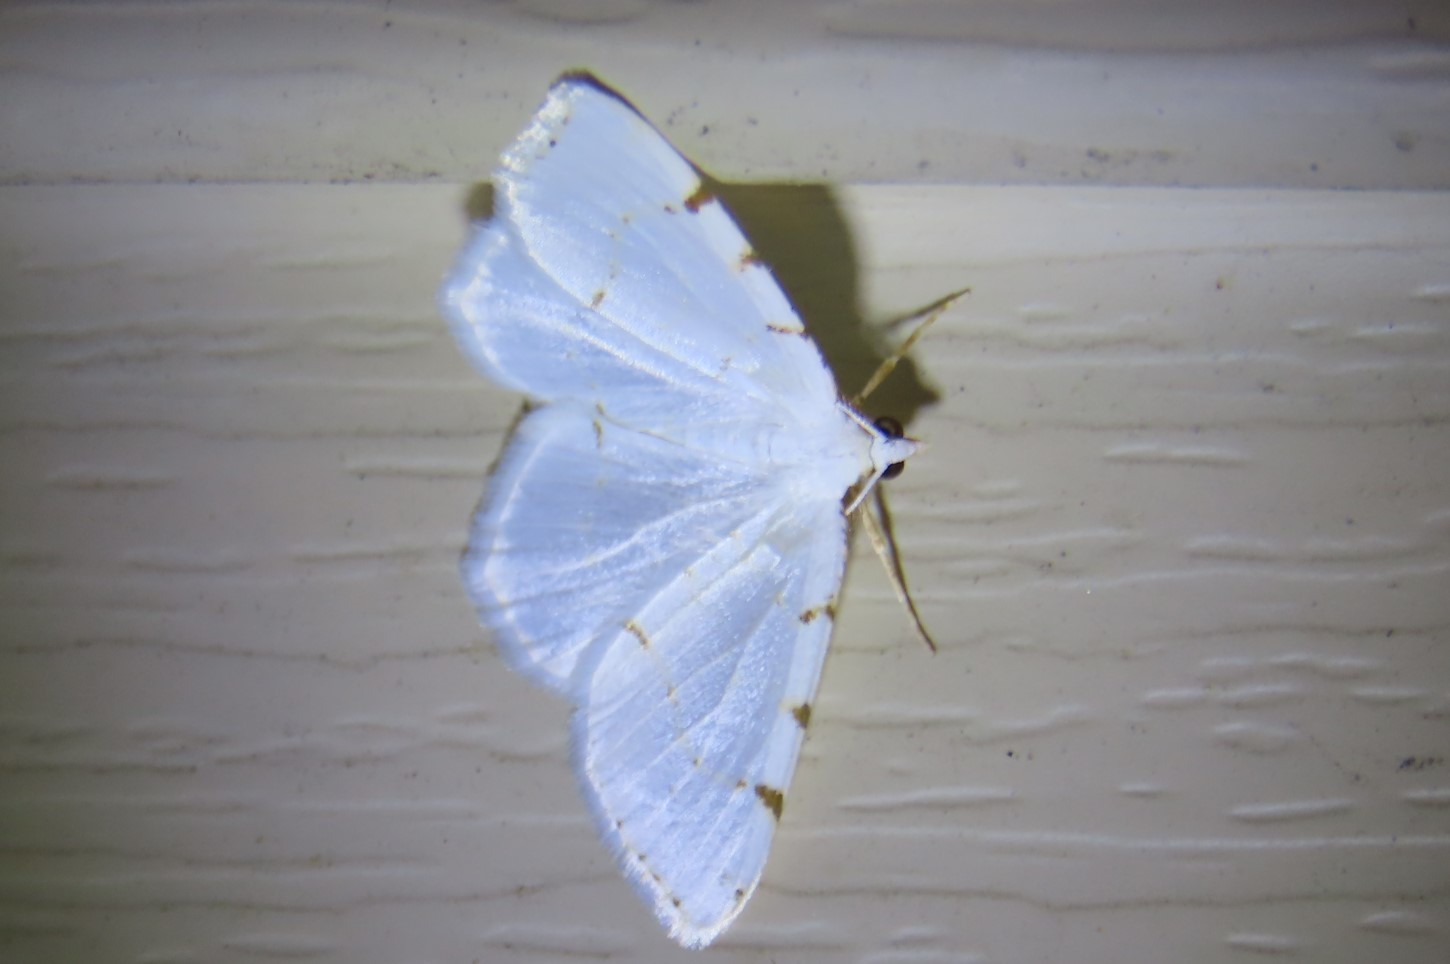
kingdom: Animalia
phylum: Arthropoda
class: Insecta
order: Lepidoptera
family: Geometridae
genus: Macaria
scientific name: Macaria pustularia
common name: Lesser maple spanworm moth
